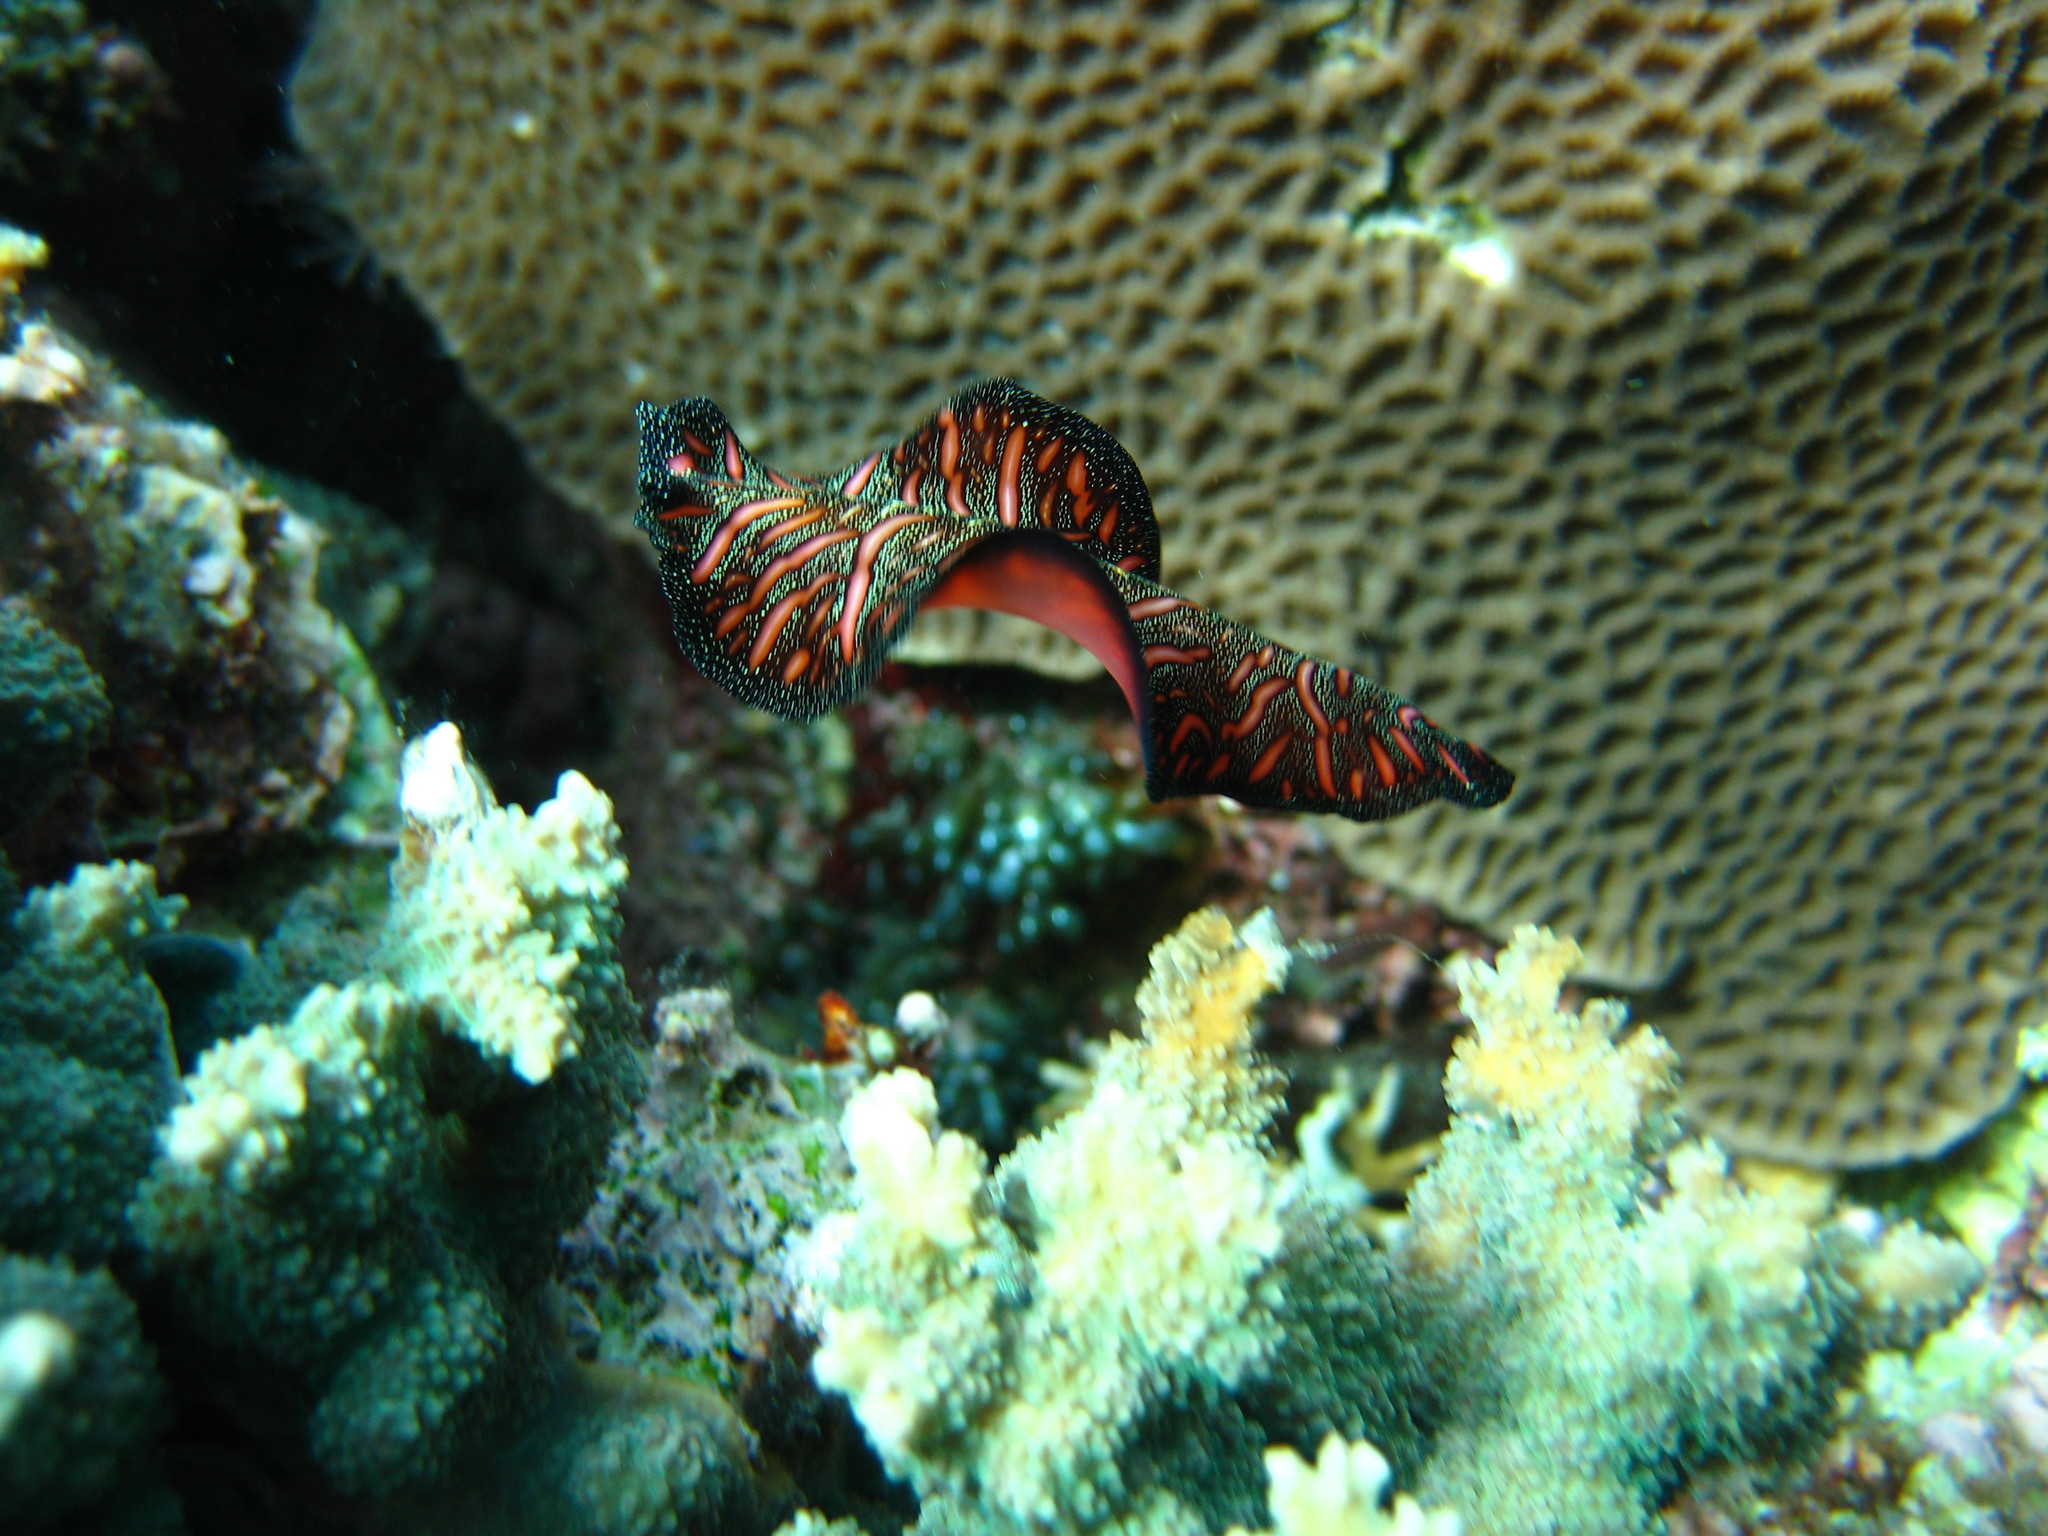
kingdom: Animalia
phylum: Platyhelminthes
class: Turbellaria
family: Pseudocerotidae
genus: Pseudobiceros
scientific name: Pseudobiceros bedfordi
